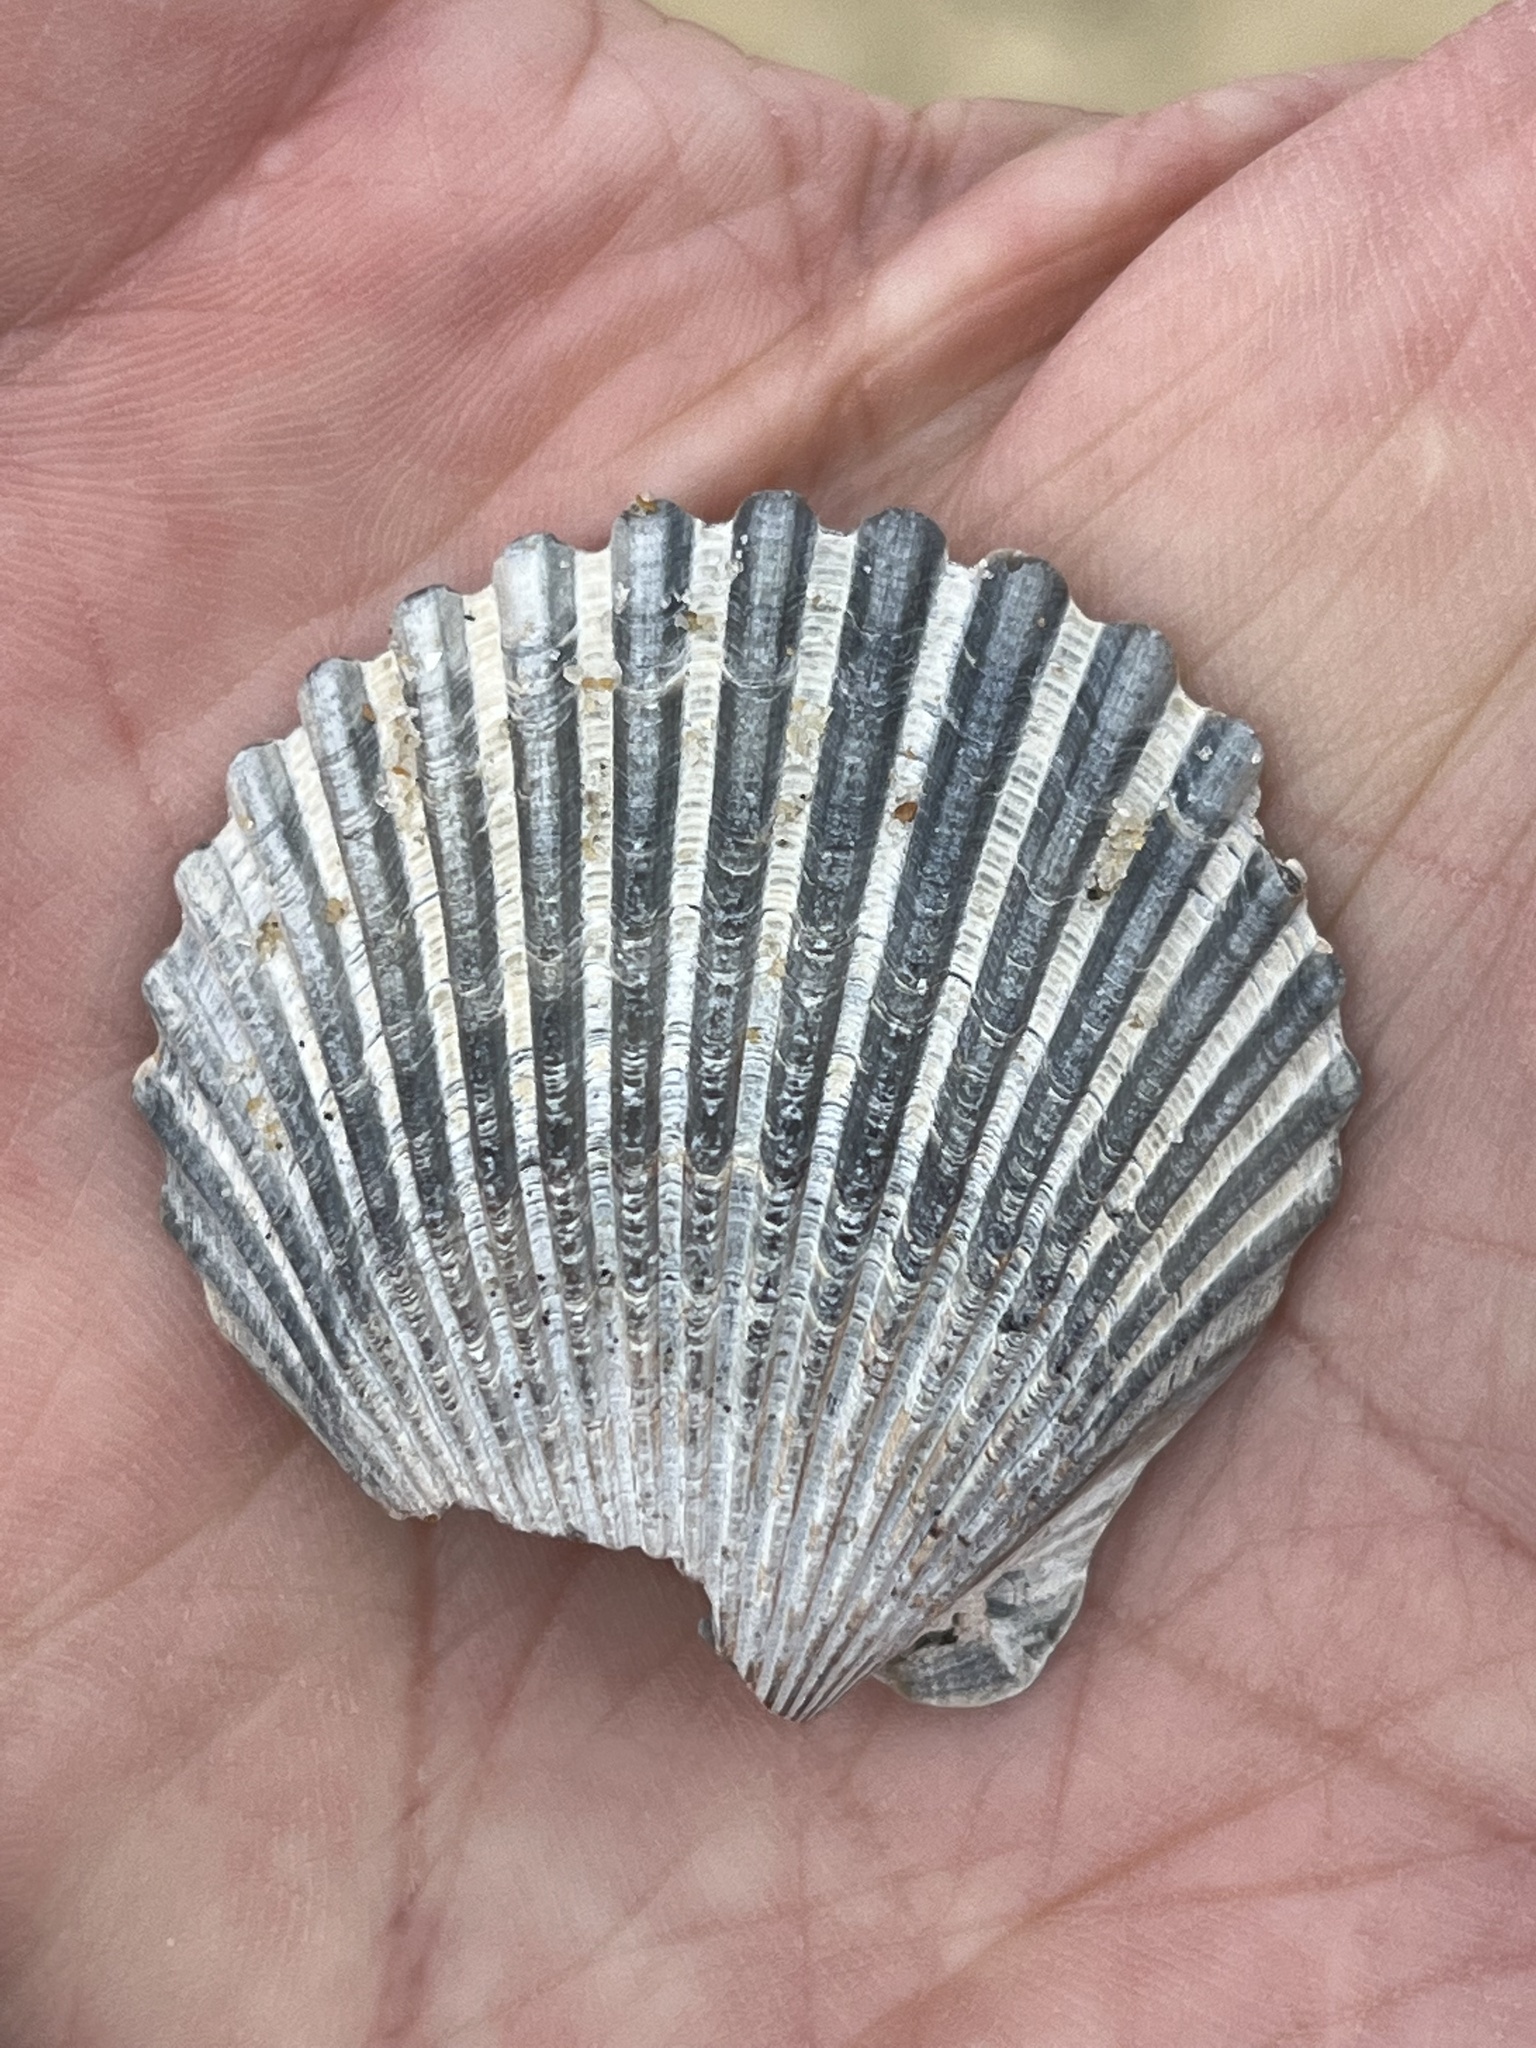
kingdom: Animalia
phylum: Mollusca
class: Bivalvia
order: Pectinida
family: Pectinidae
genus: Argopecten
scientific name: Argopecten irradians
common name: Atlantic bay scallop
